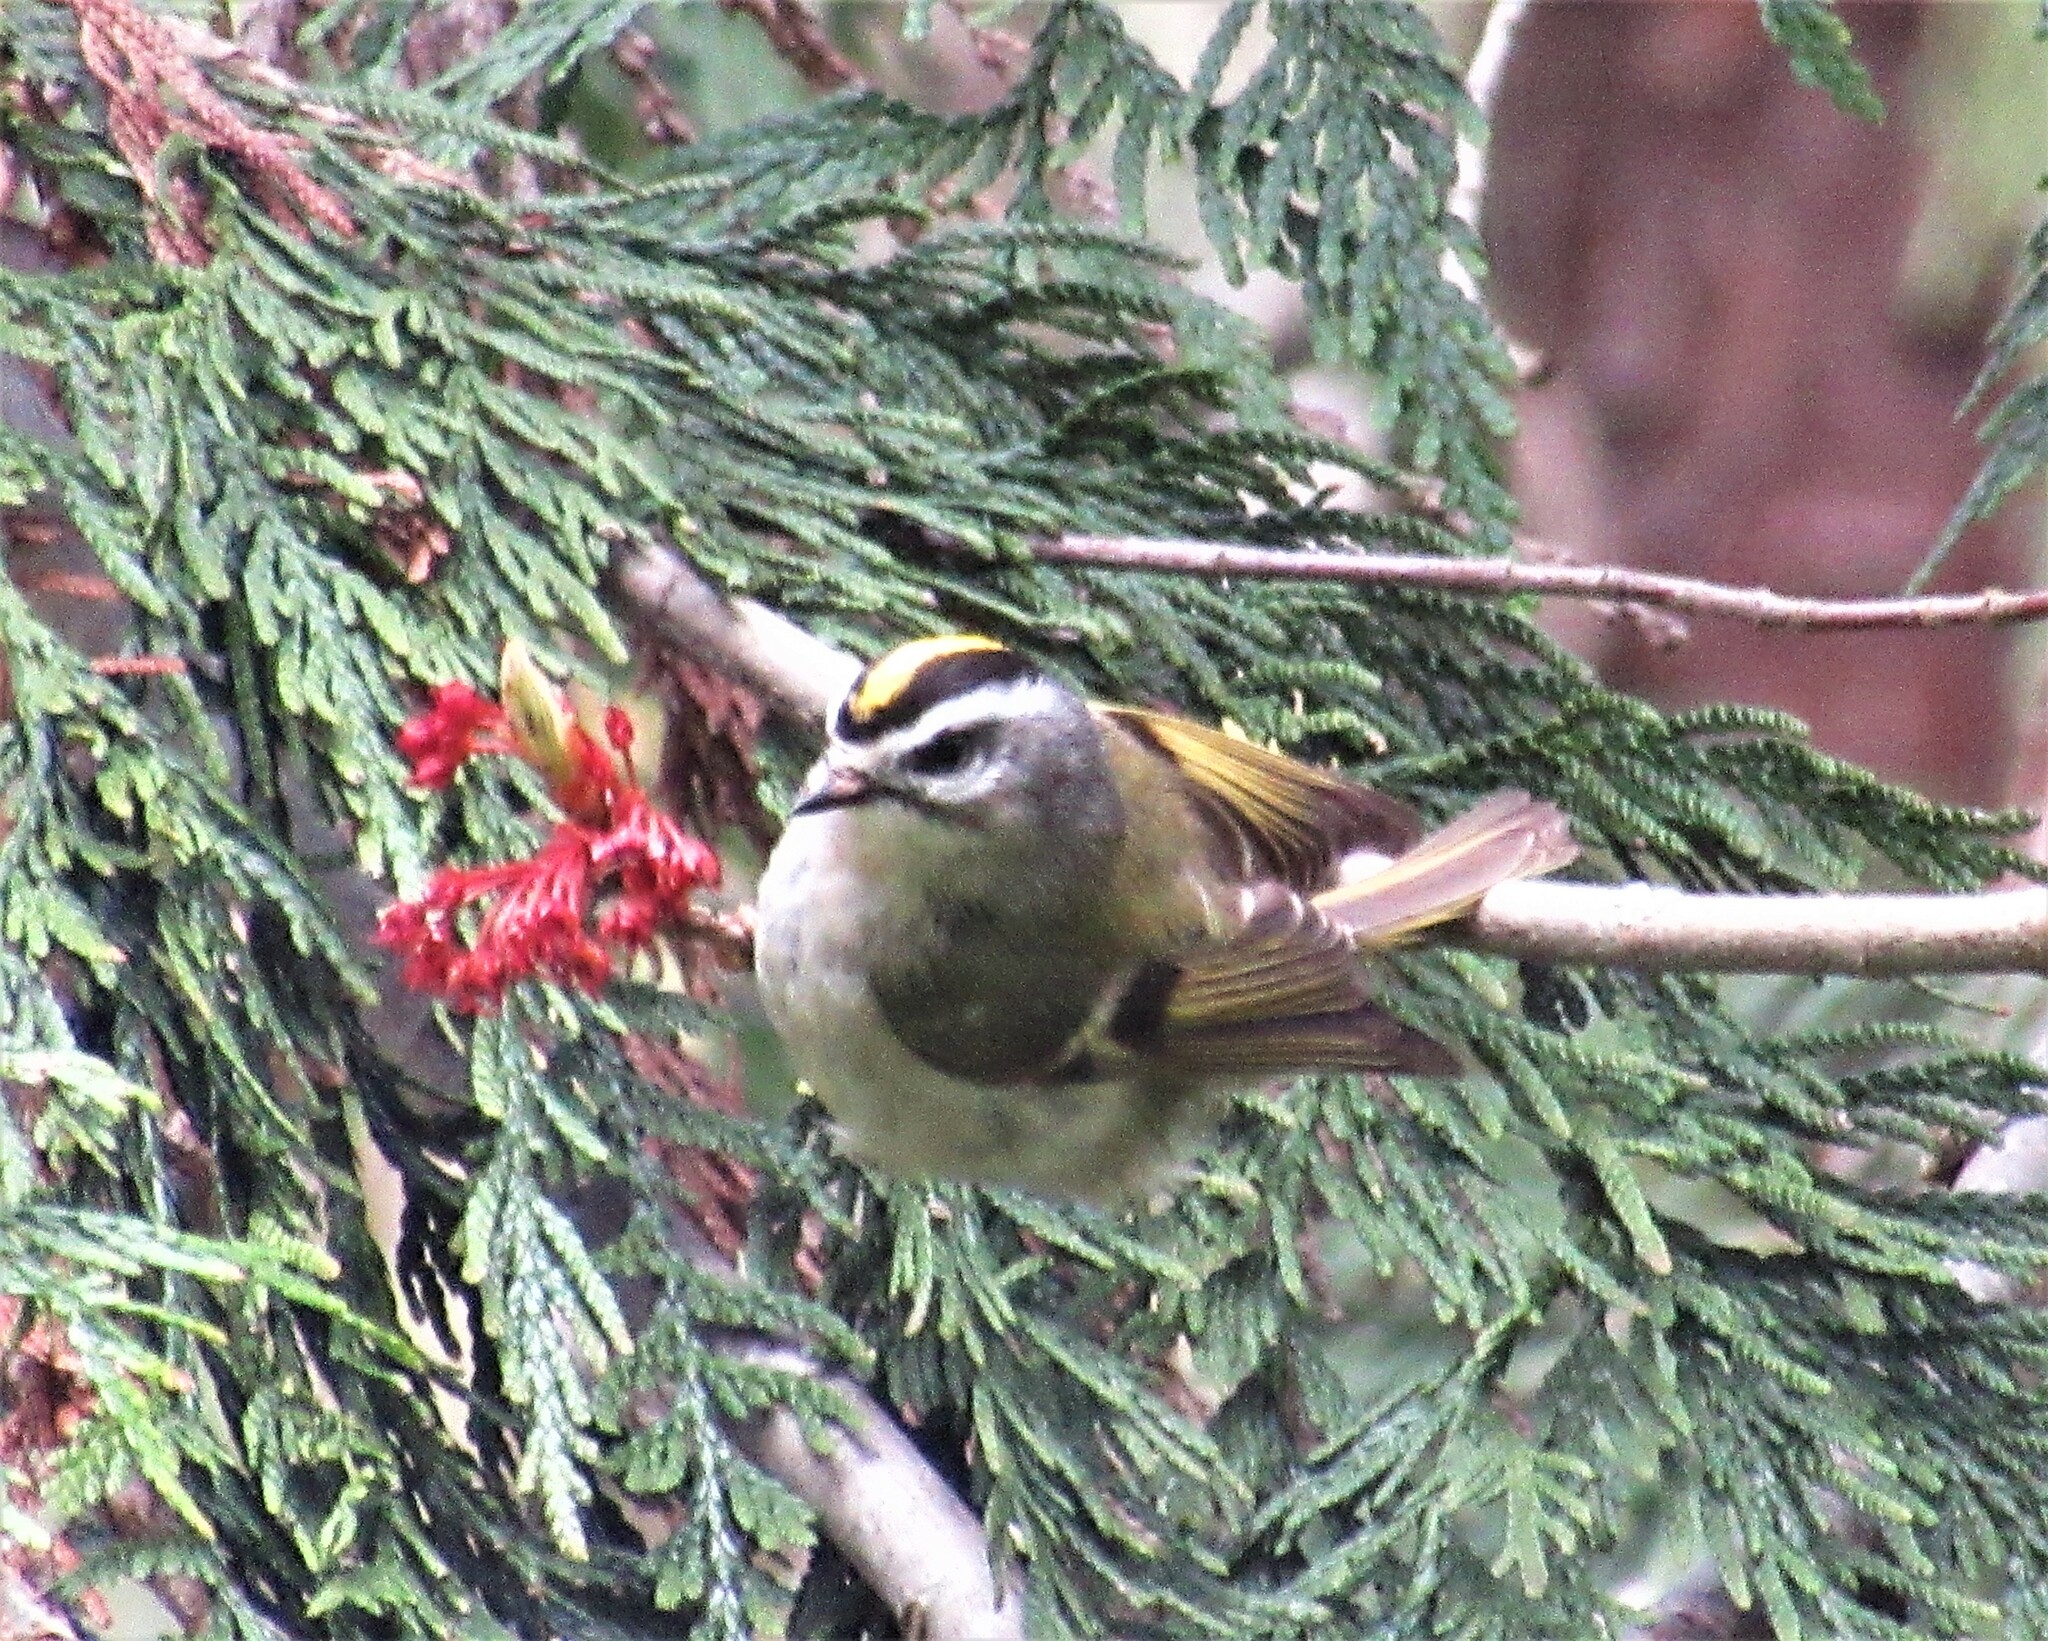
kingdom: Animalia
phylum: Chordata
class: Aves
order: Passeriformes
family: Regulidae
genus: Regulus
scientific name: Regulus satrapa
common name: Golden-crowned kinglet
